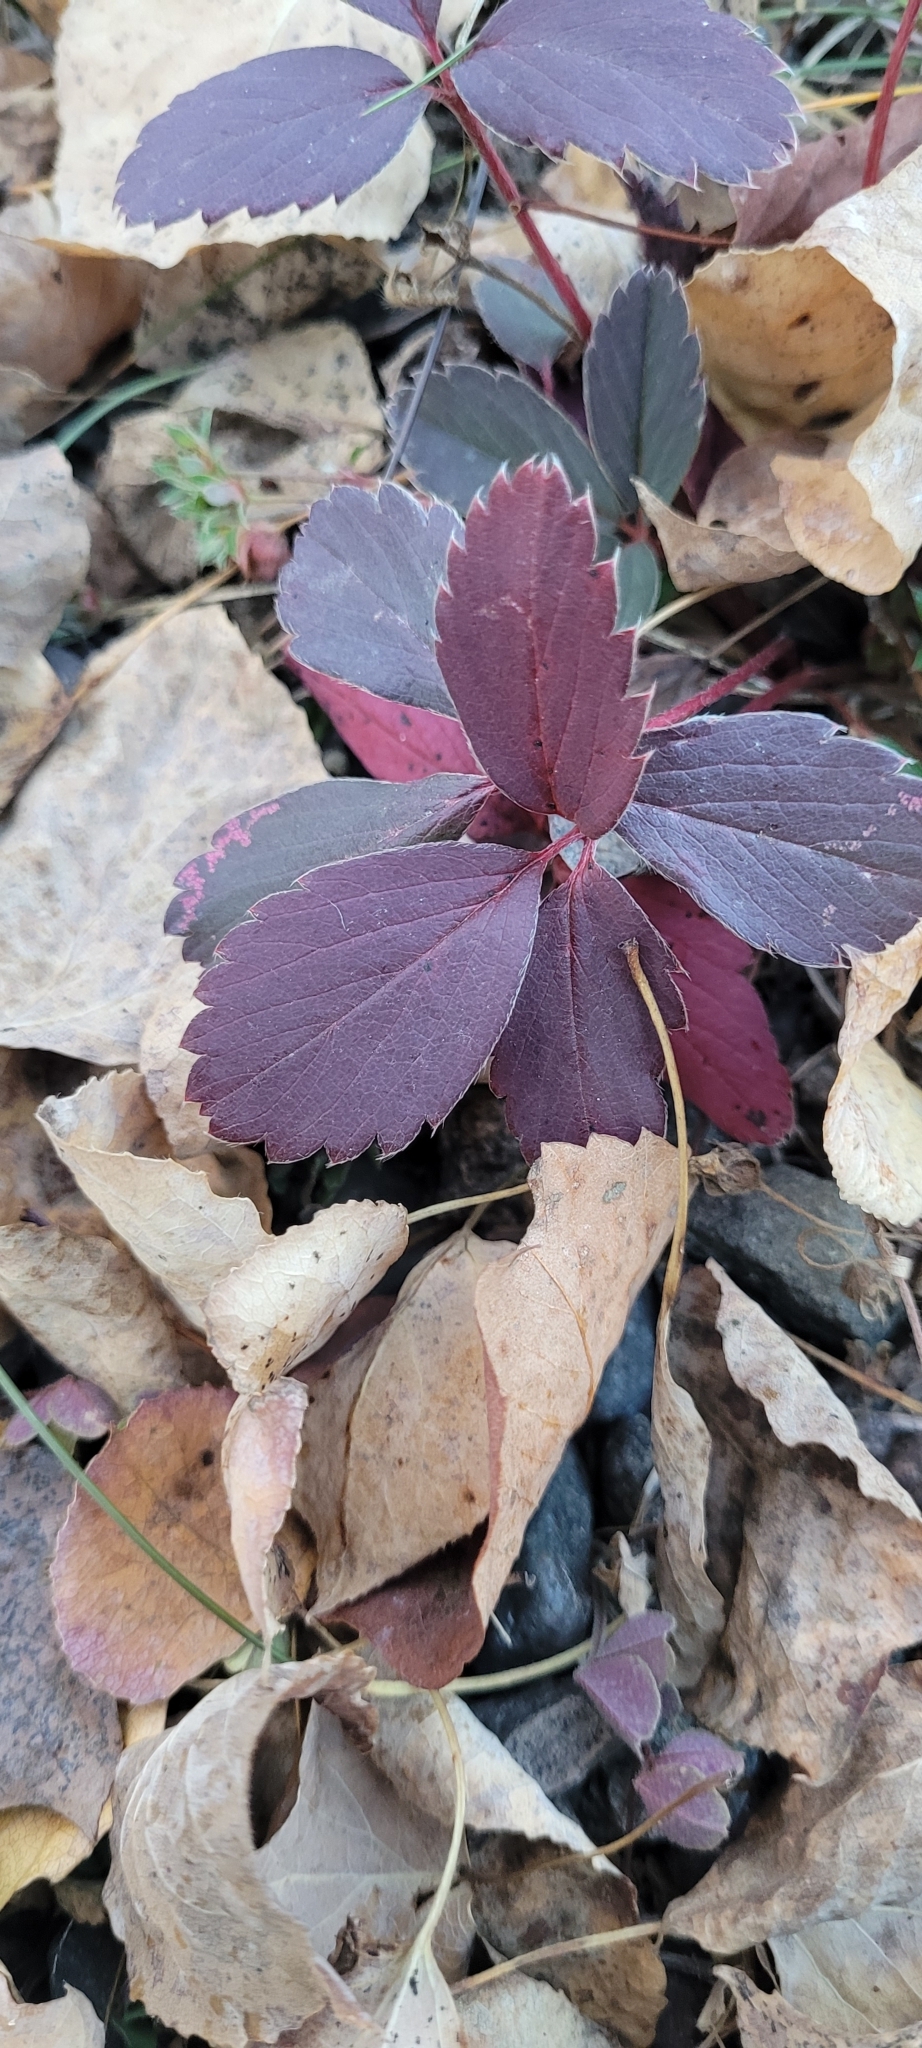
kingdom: Plantae
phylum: Tracheophyta
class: Magnoliopsida
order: Rosales
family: Rosaceae
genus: Fragaria
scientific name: Fragaria virginiana
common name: Thickleaved wild strawberry
